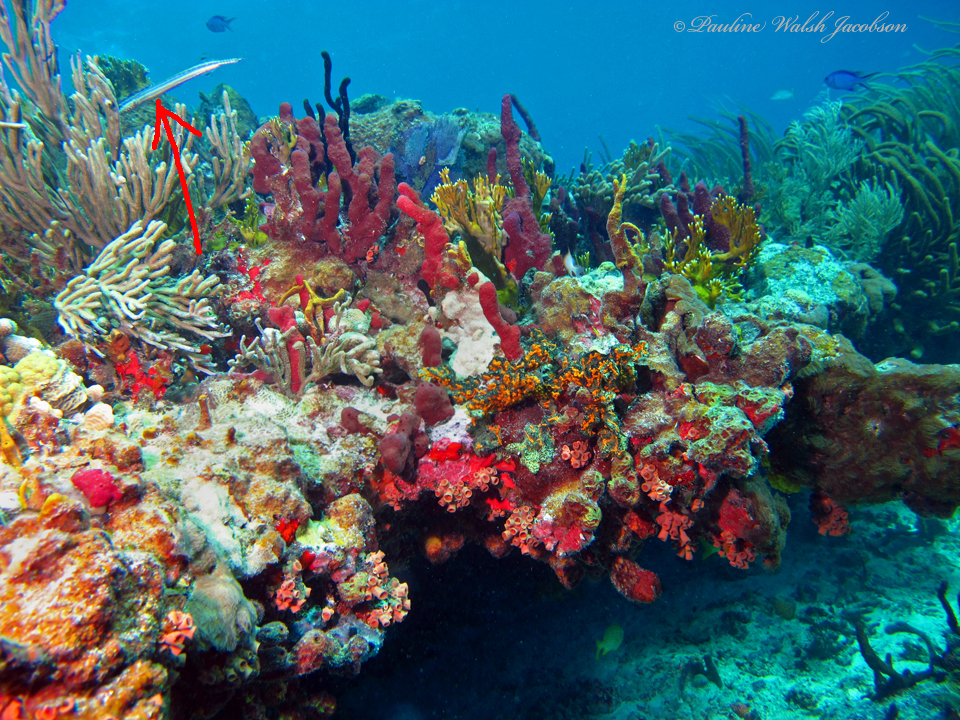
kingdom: Animalia
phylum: Chordata
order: Syngnathiformes
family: Aulostomidae
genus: Aulostomus
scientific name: Aulostomus maculatus
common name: West atlantic trumpetfish
